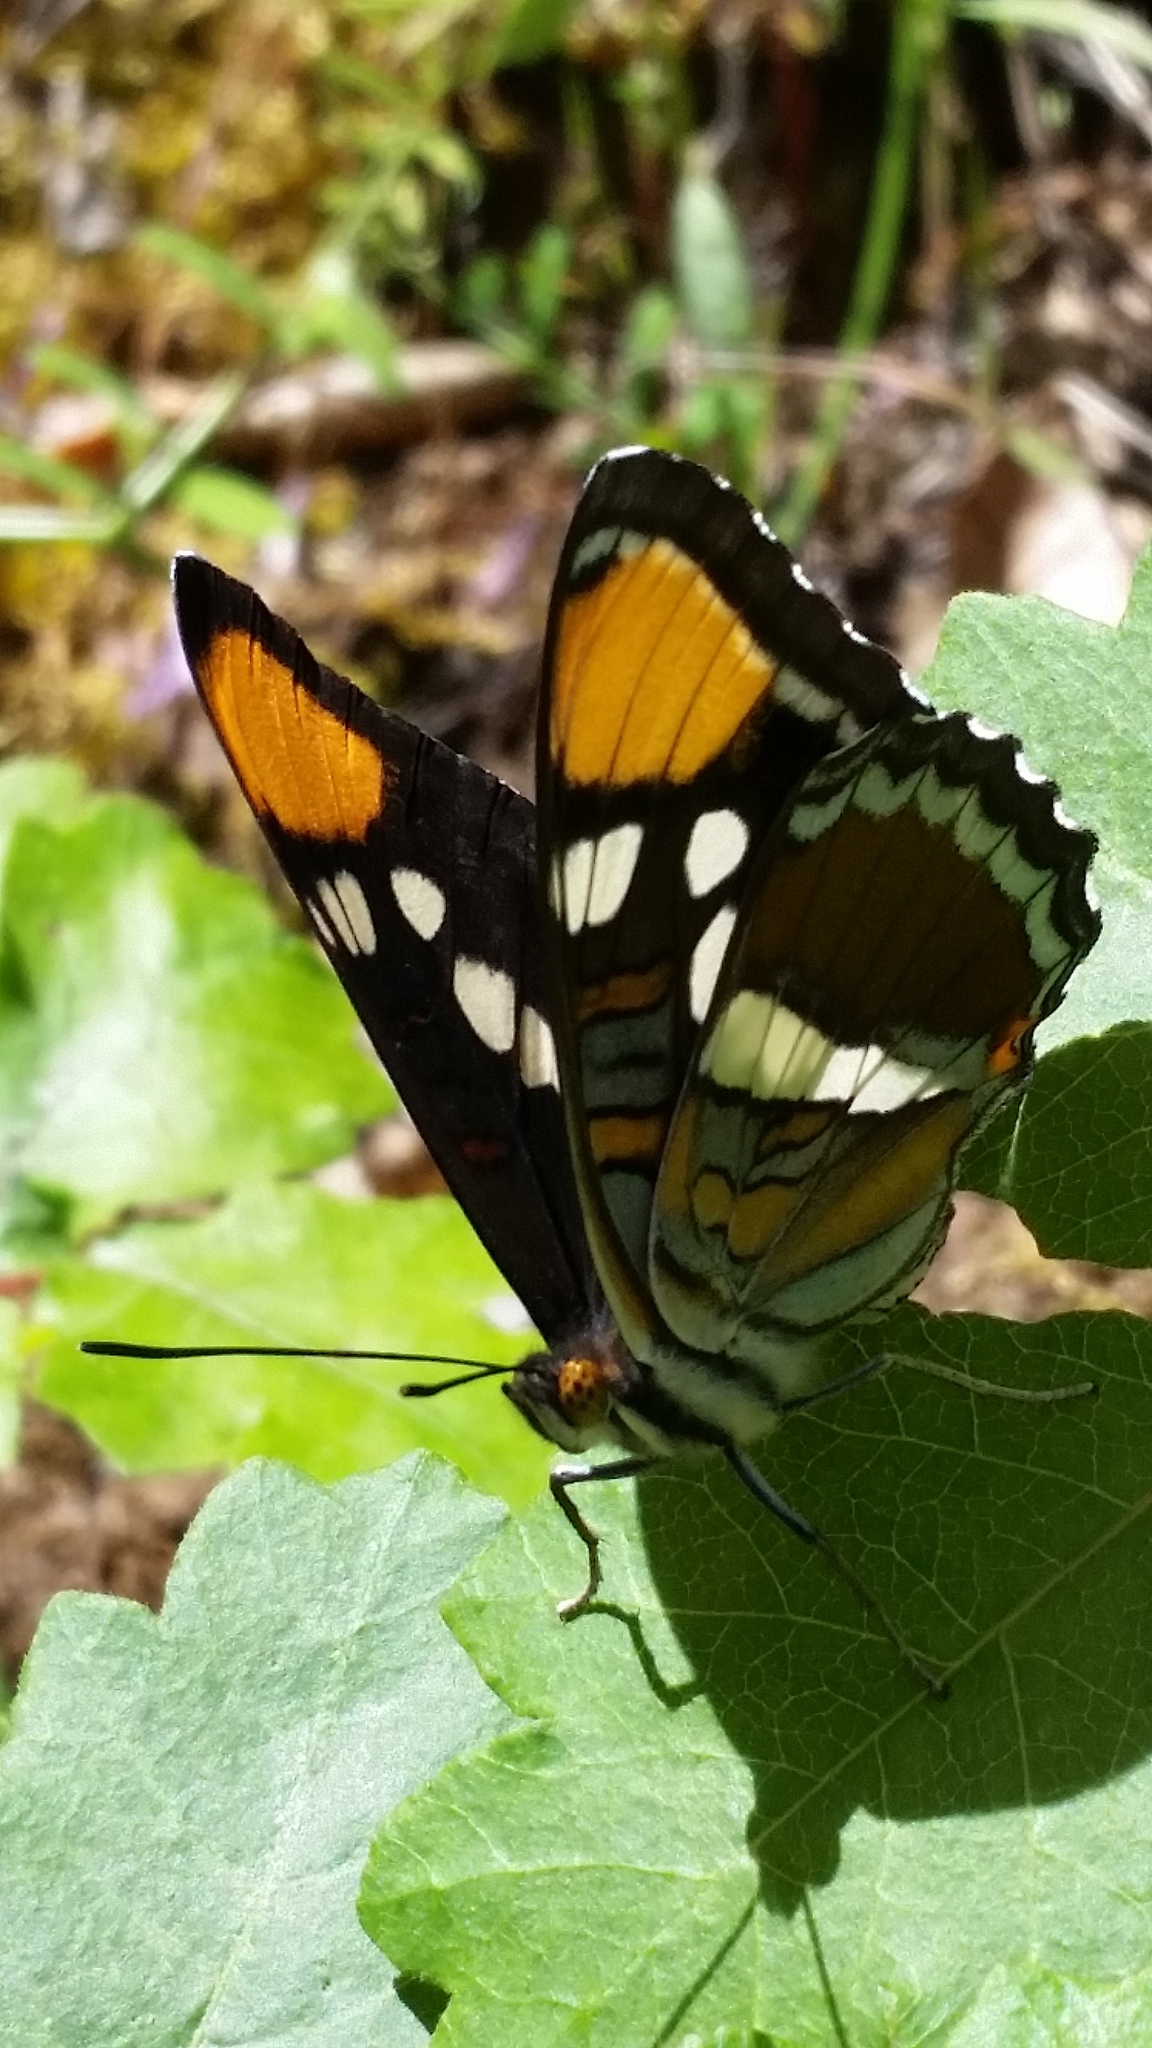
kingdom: Animalia
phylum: Arthropoda
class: Insecta
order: Lepidoptera
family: Nymphalidae
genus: Limenitis
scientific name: Limenitis bredowii
